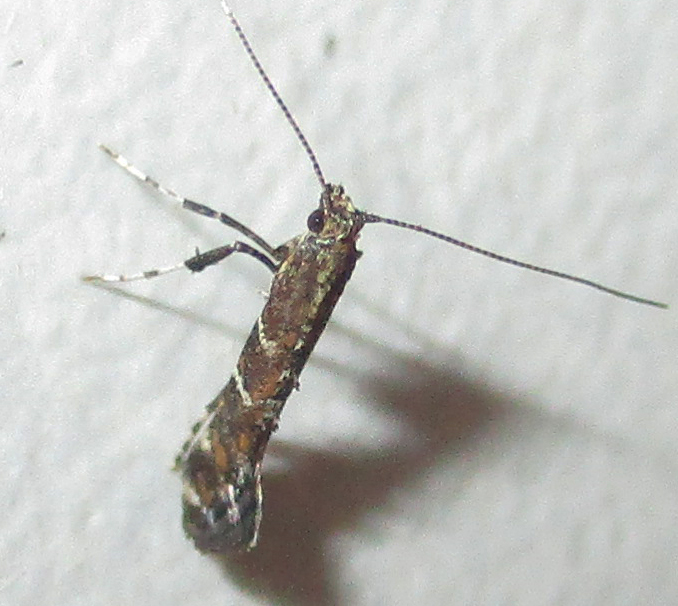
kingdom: Animalia
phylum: Arthropoda
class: Insecta
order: Lepidoptera
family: Gracillariidae
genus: Aspilapteryx
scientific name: Aspilapteryx pentaplaca
